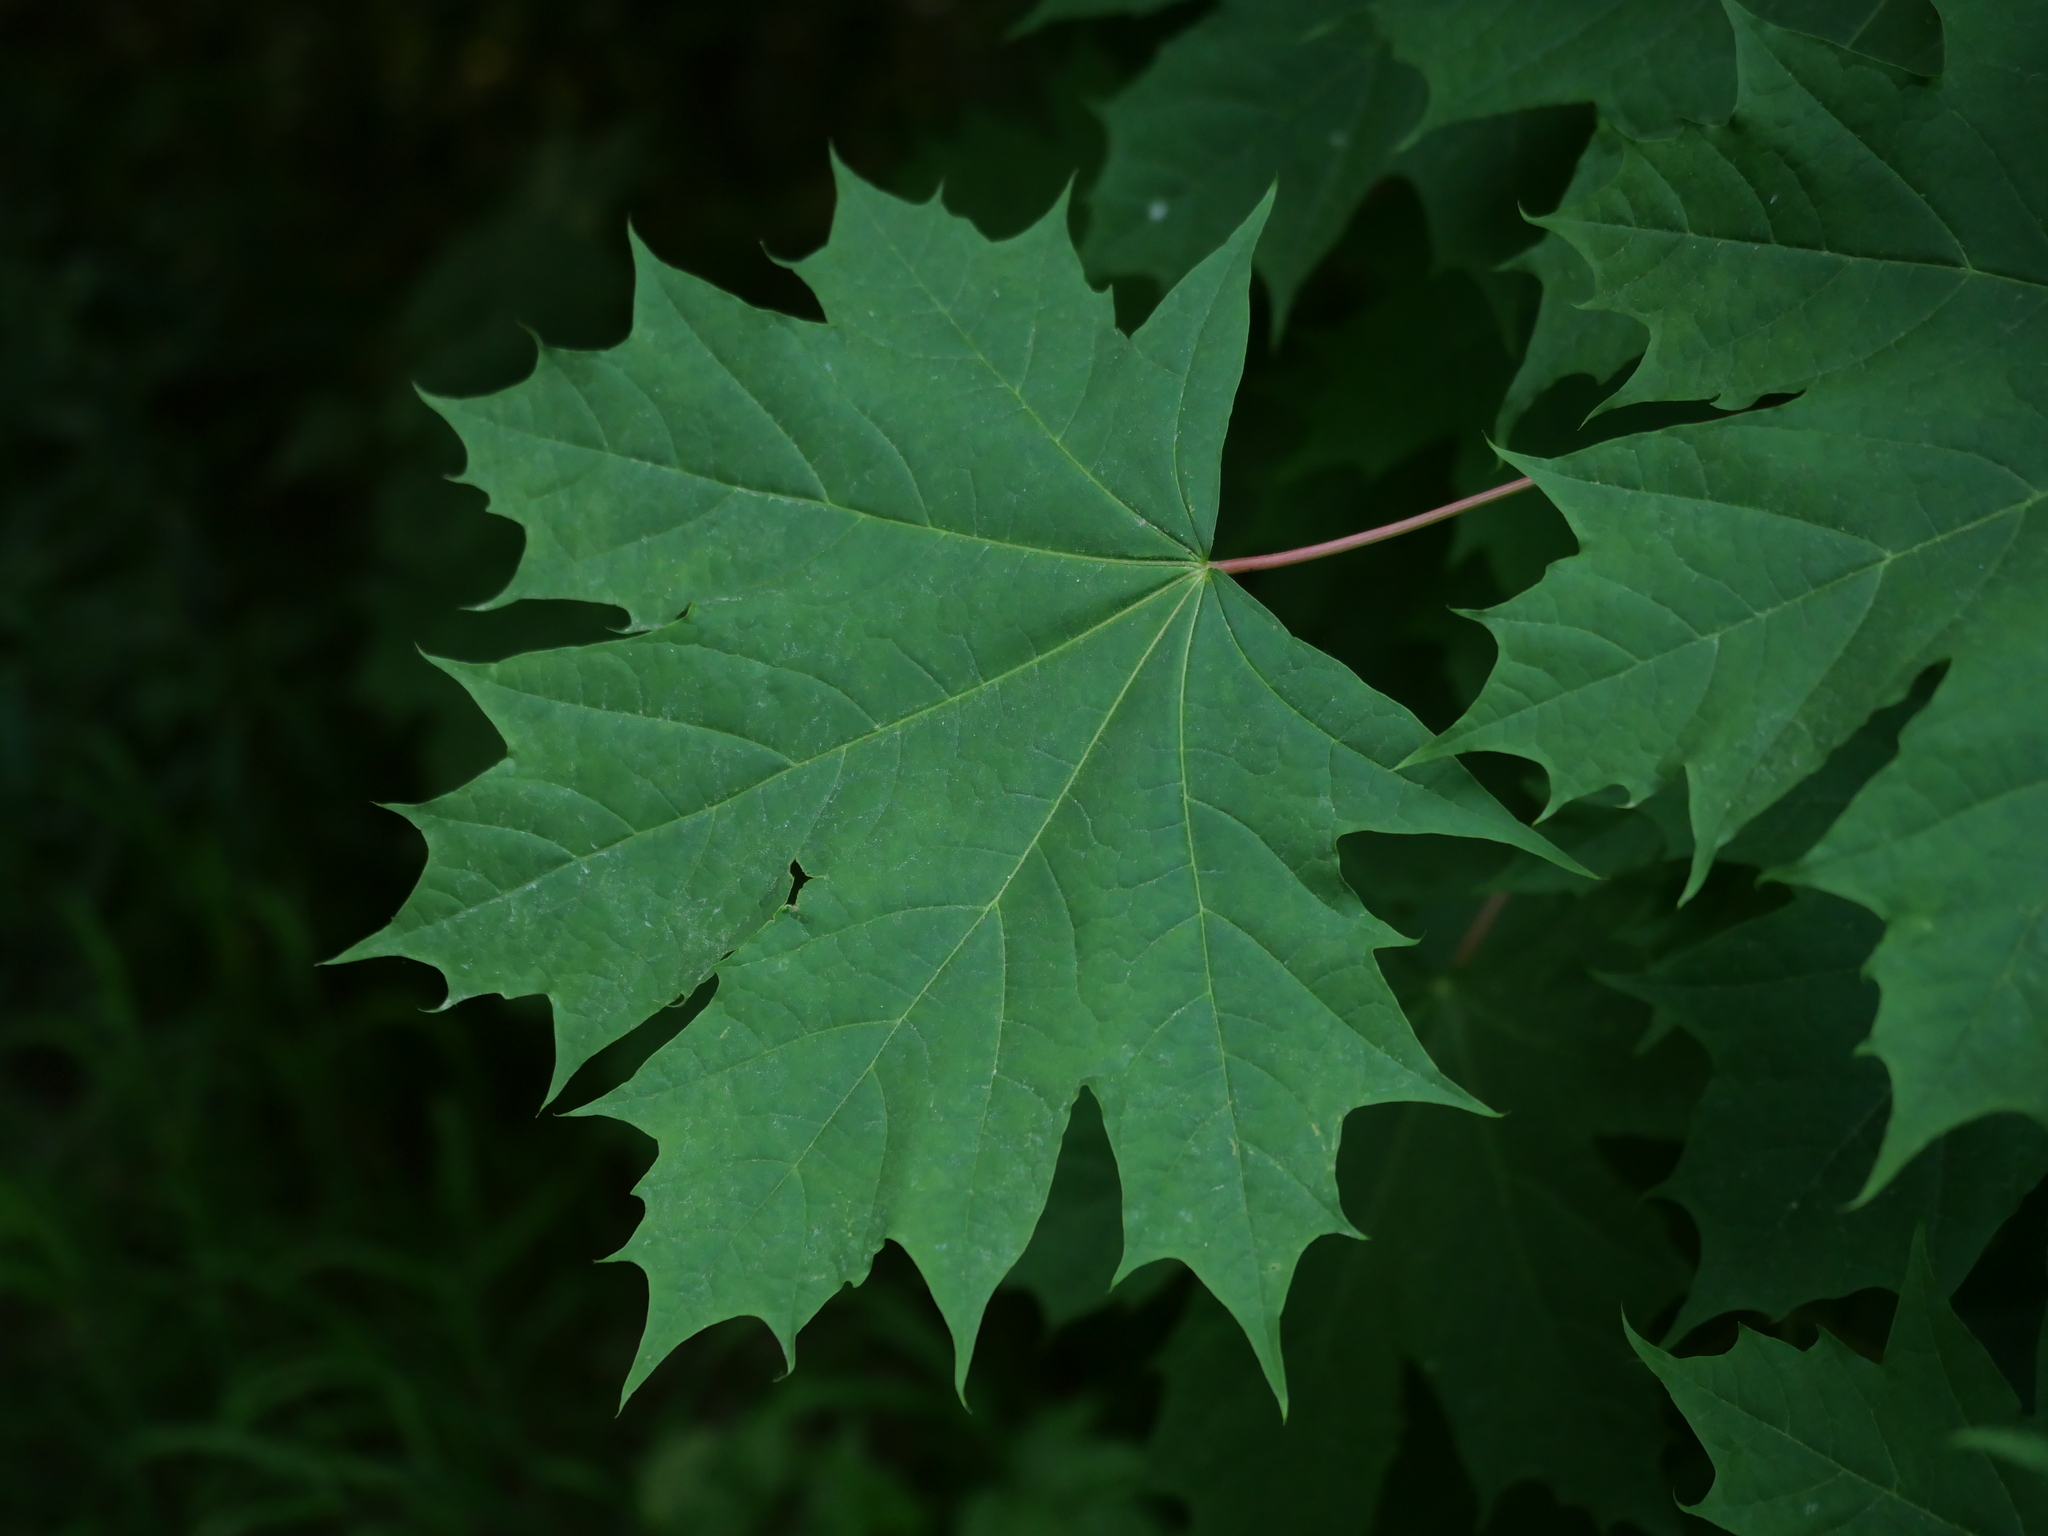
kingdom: Plantae
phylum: Tracheophyta
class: Magnoliopsida
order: Sapindales
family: Sapindaceae
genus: Acer
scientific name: Acer platanoides
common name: Norway maple
